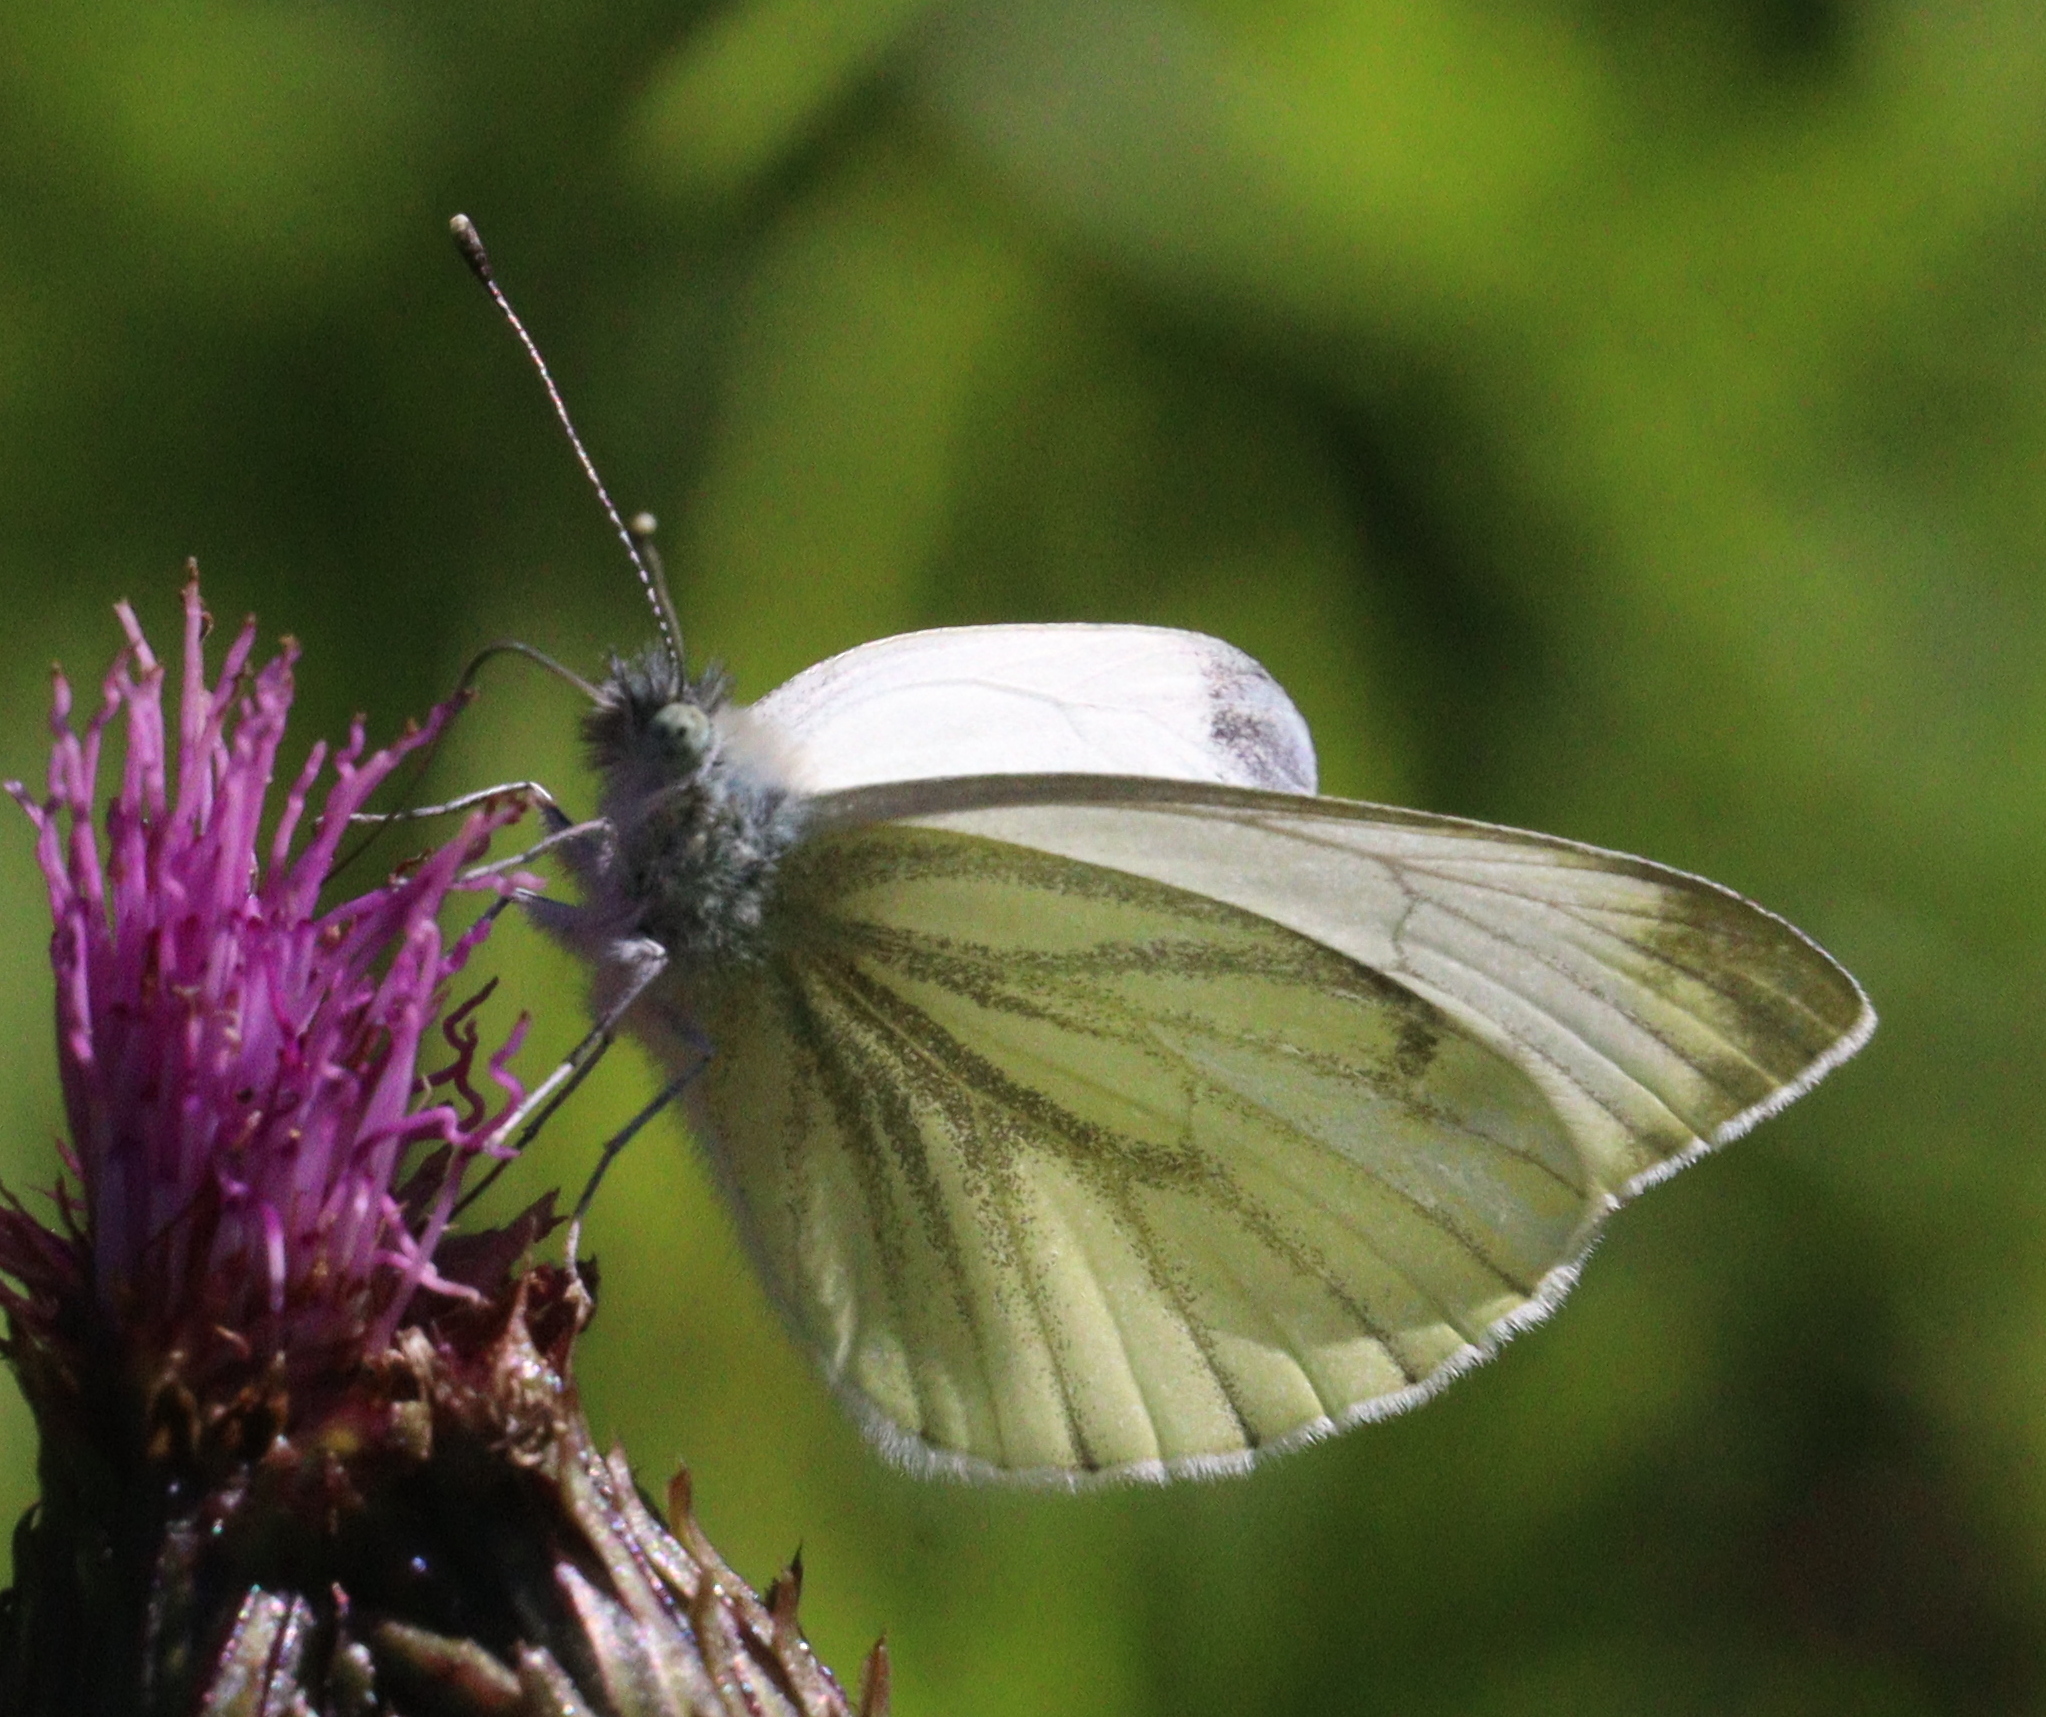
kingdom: Animalia
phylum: Arthropoda
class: Insecta
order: Lepidoptera
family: Pieridae
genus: Pieris
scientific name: Pieris napi
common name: Green-veined white
